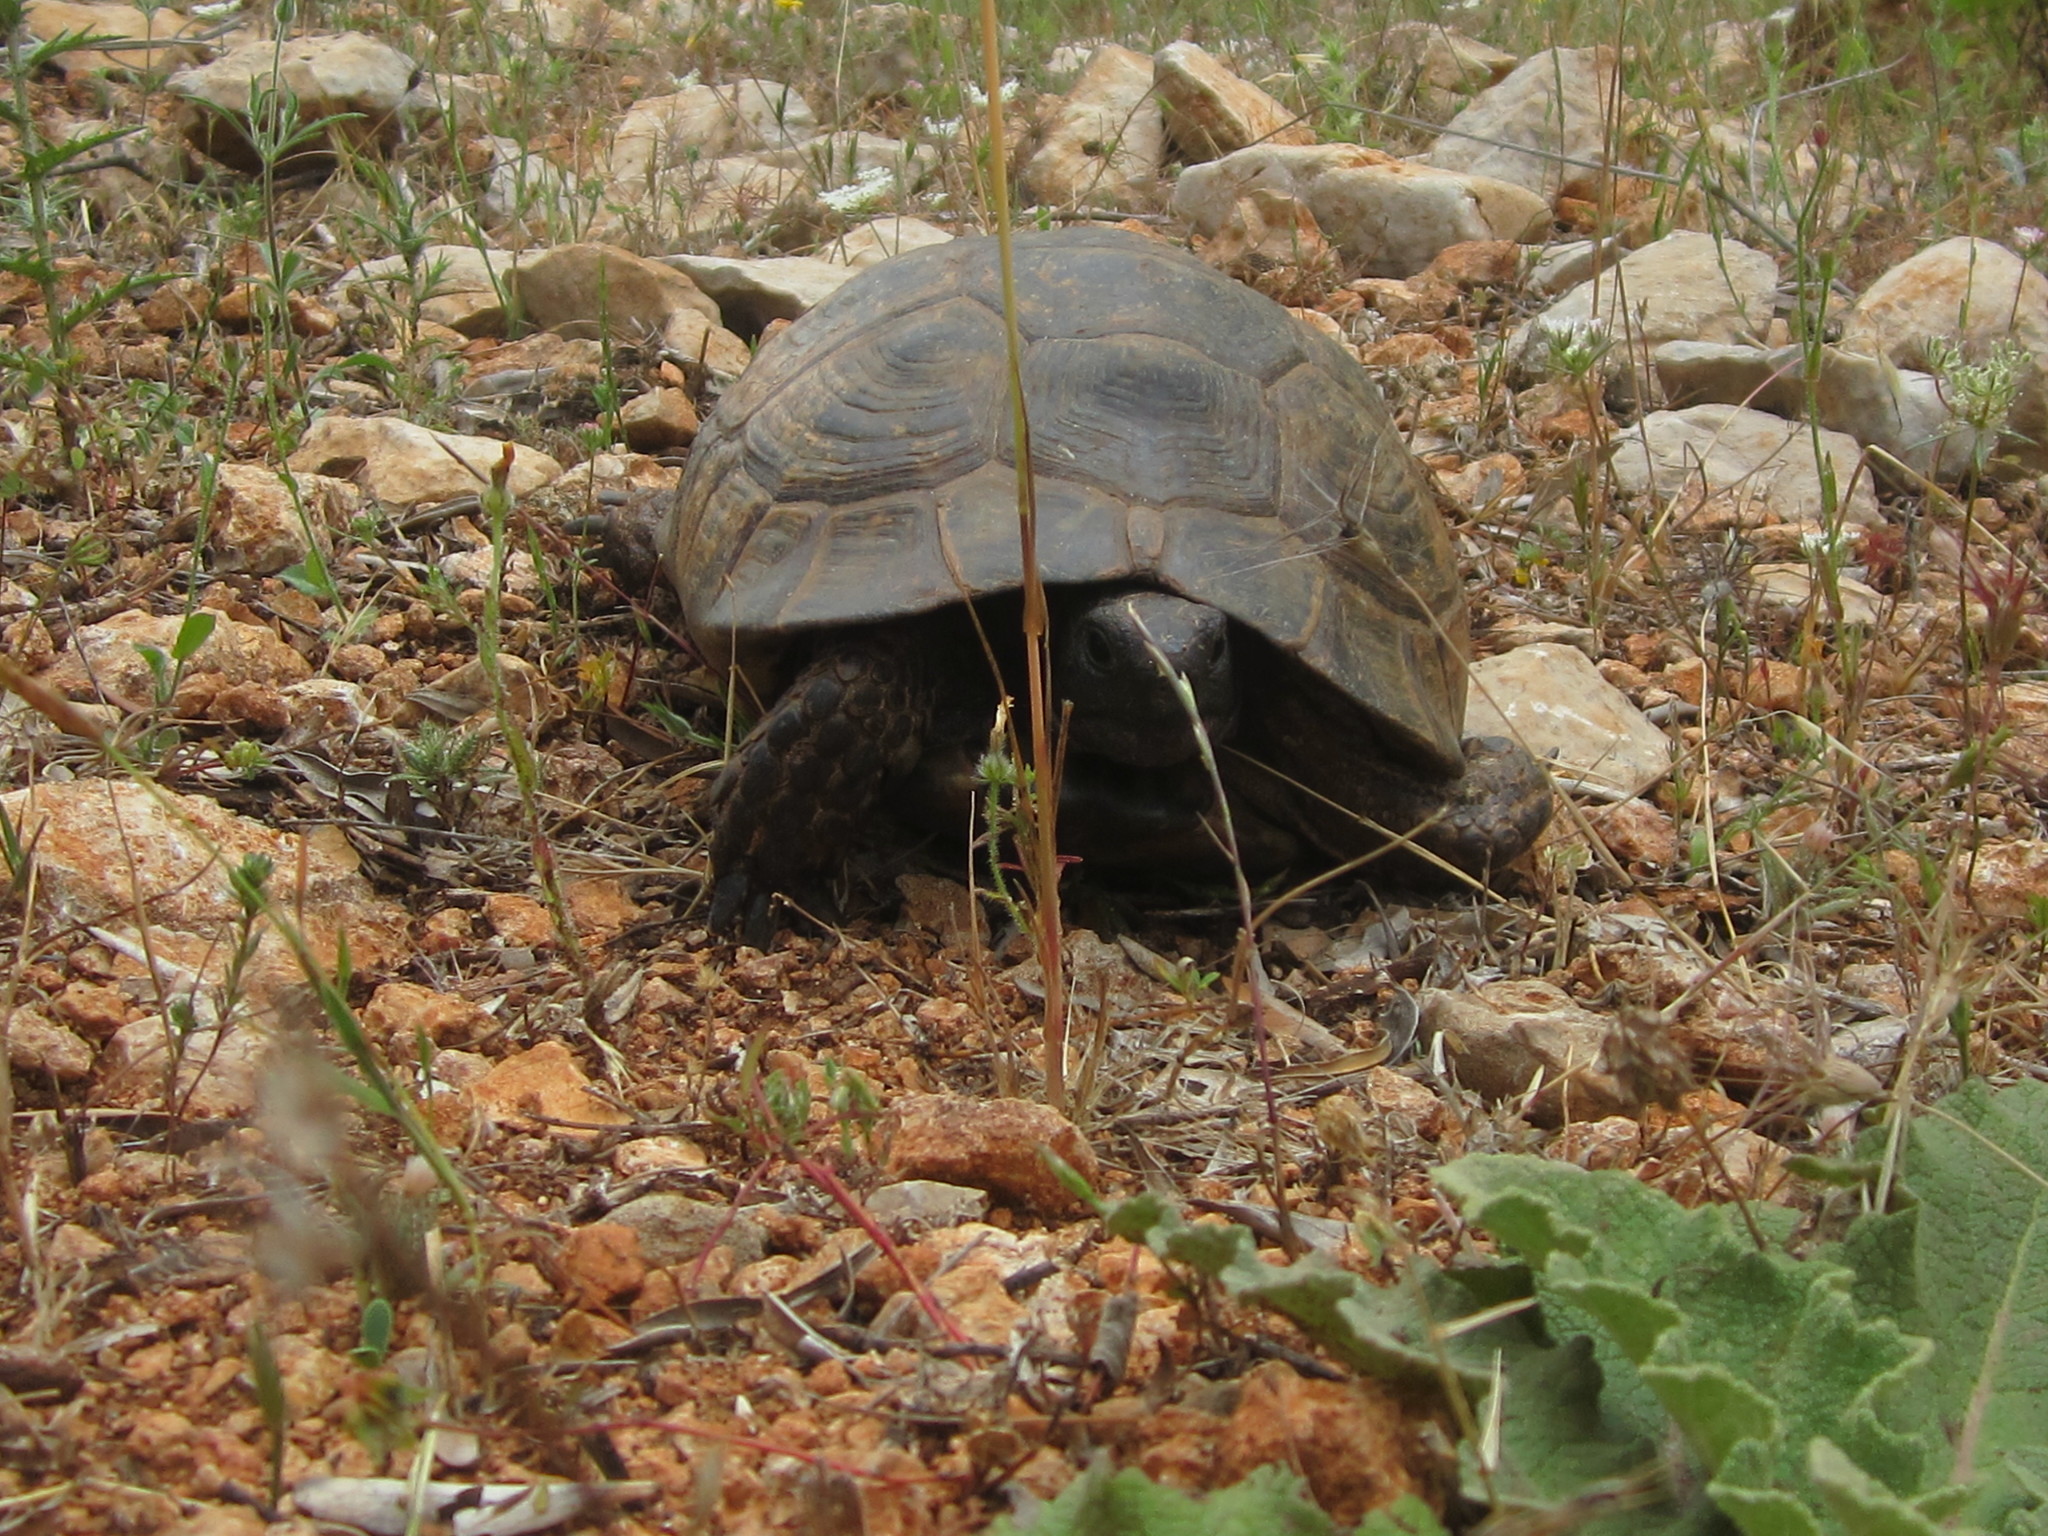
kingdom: Animalia
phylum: Chordata
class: Testudines
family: Testudinidae
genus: Testudo
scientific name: Testudo graeca
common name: Common tortoise
